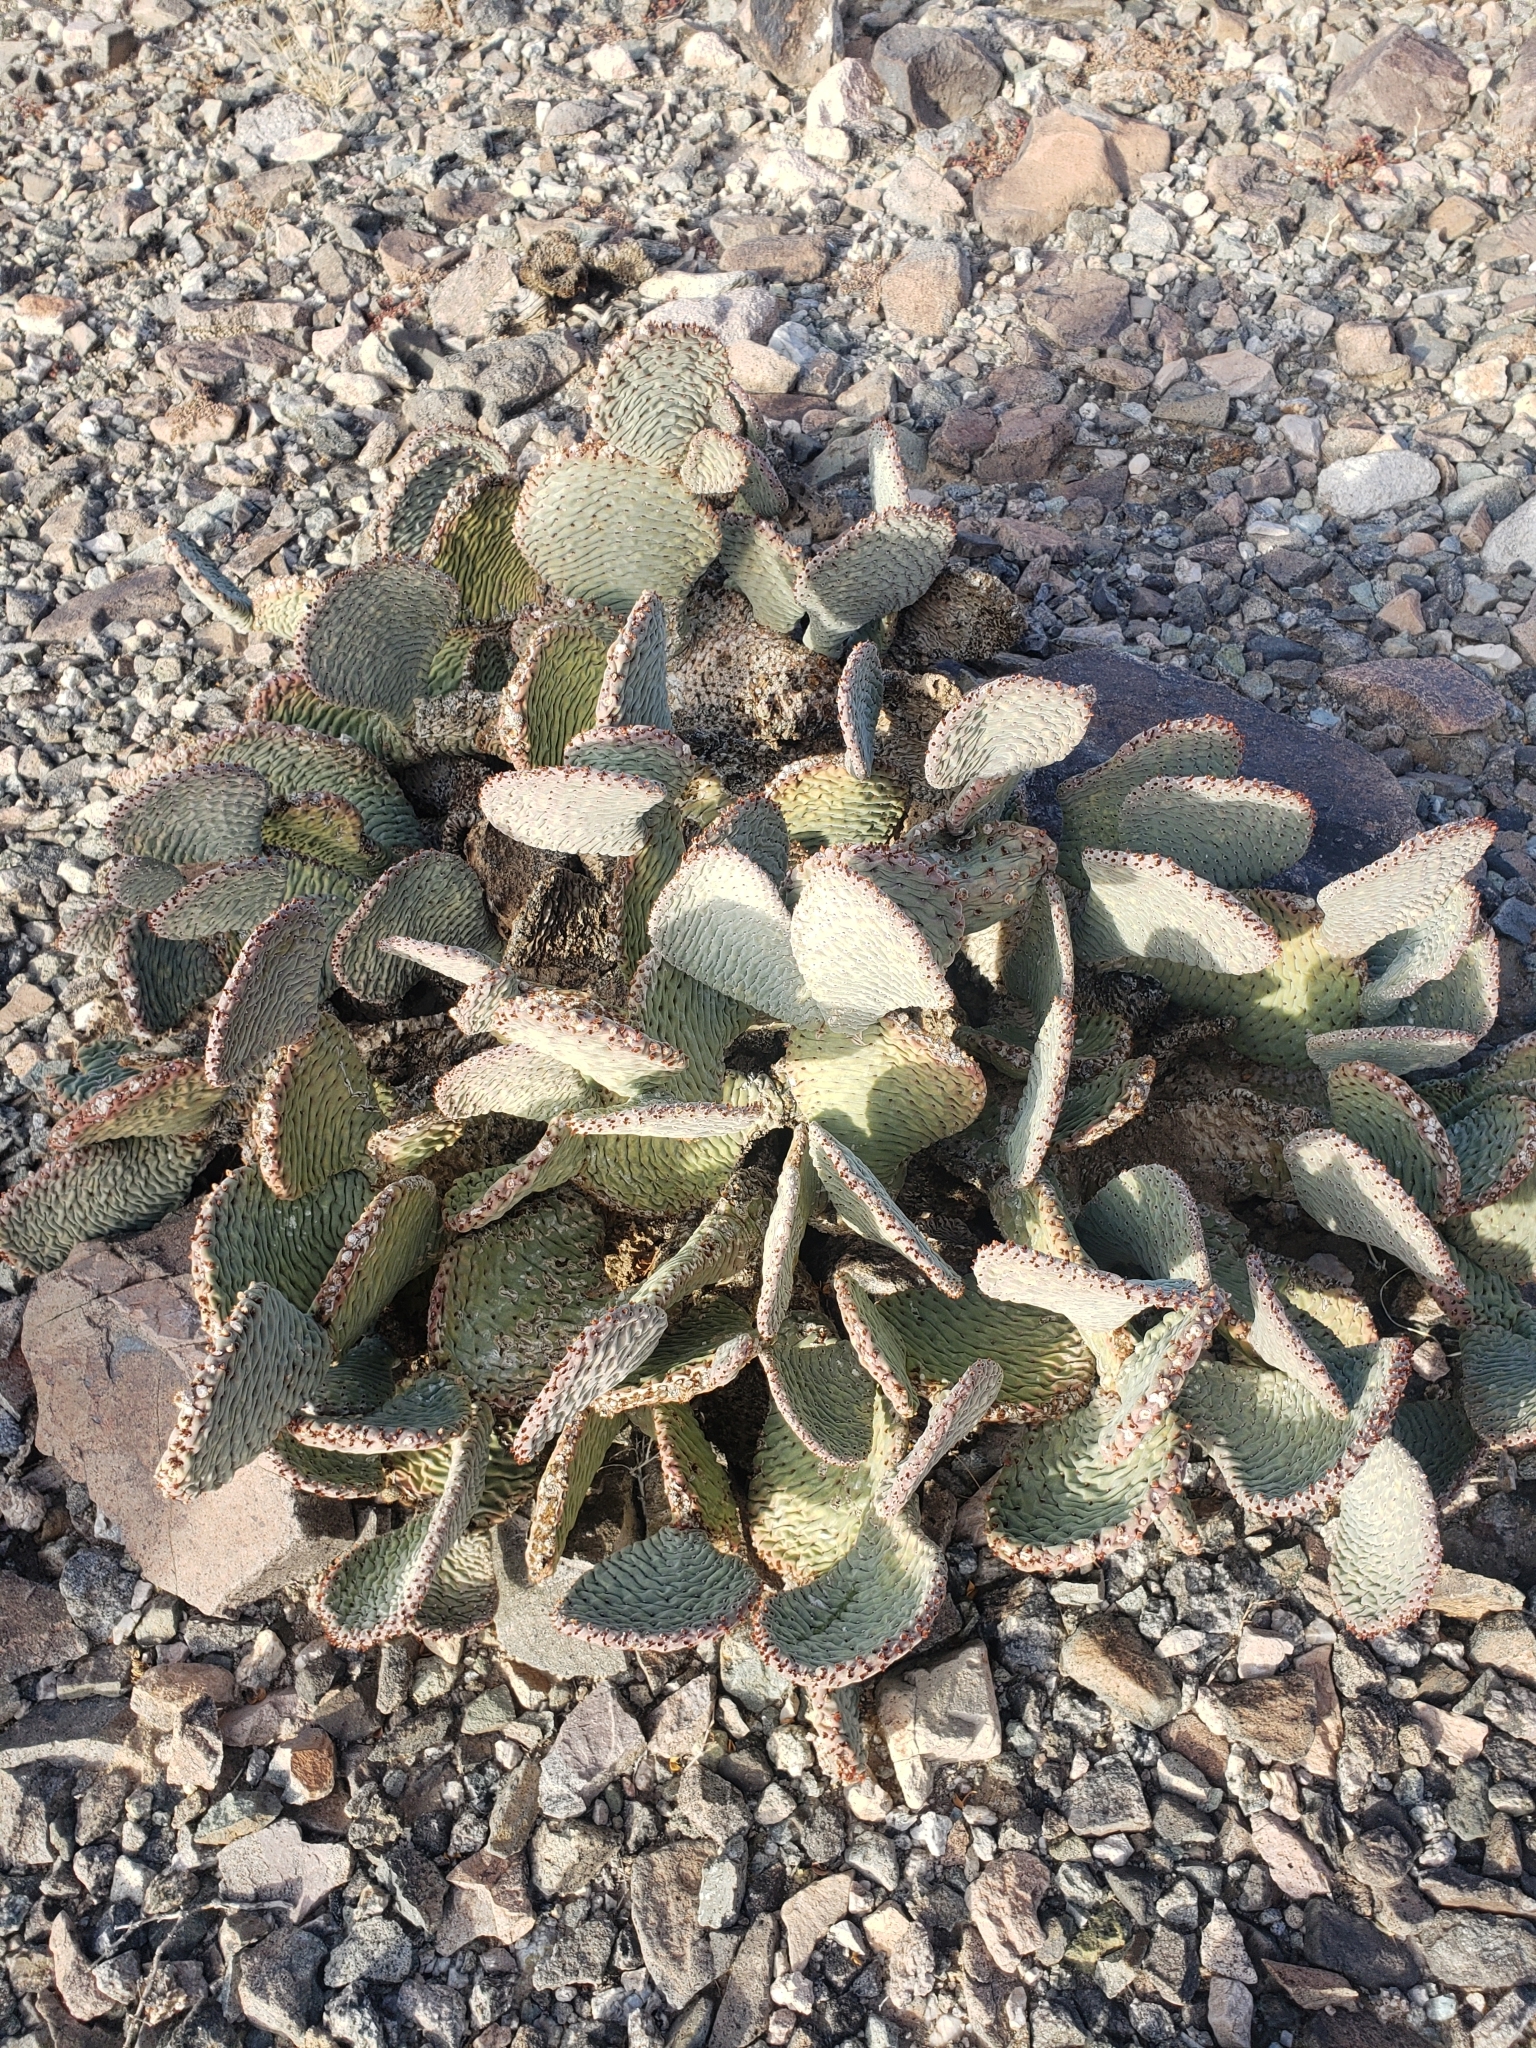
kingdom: Plantae
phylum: Tracheophyta
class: Magnoliopsida
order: Caryophyllales
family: Cactaceae
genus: Opuntia
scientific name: Opuntia basilaris
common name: Beavertail prickly-pear
